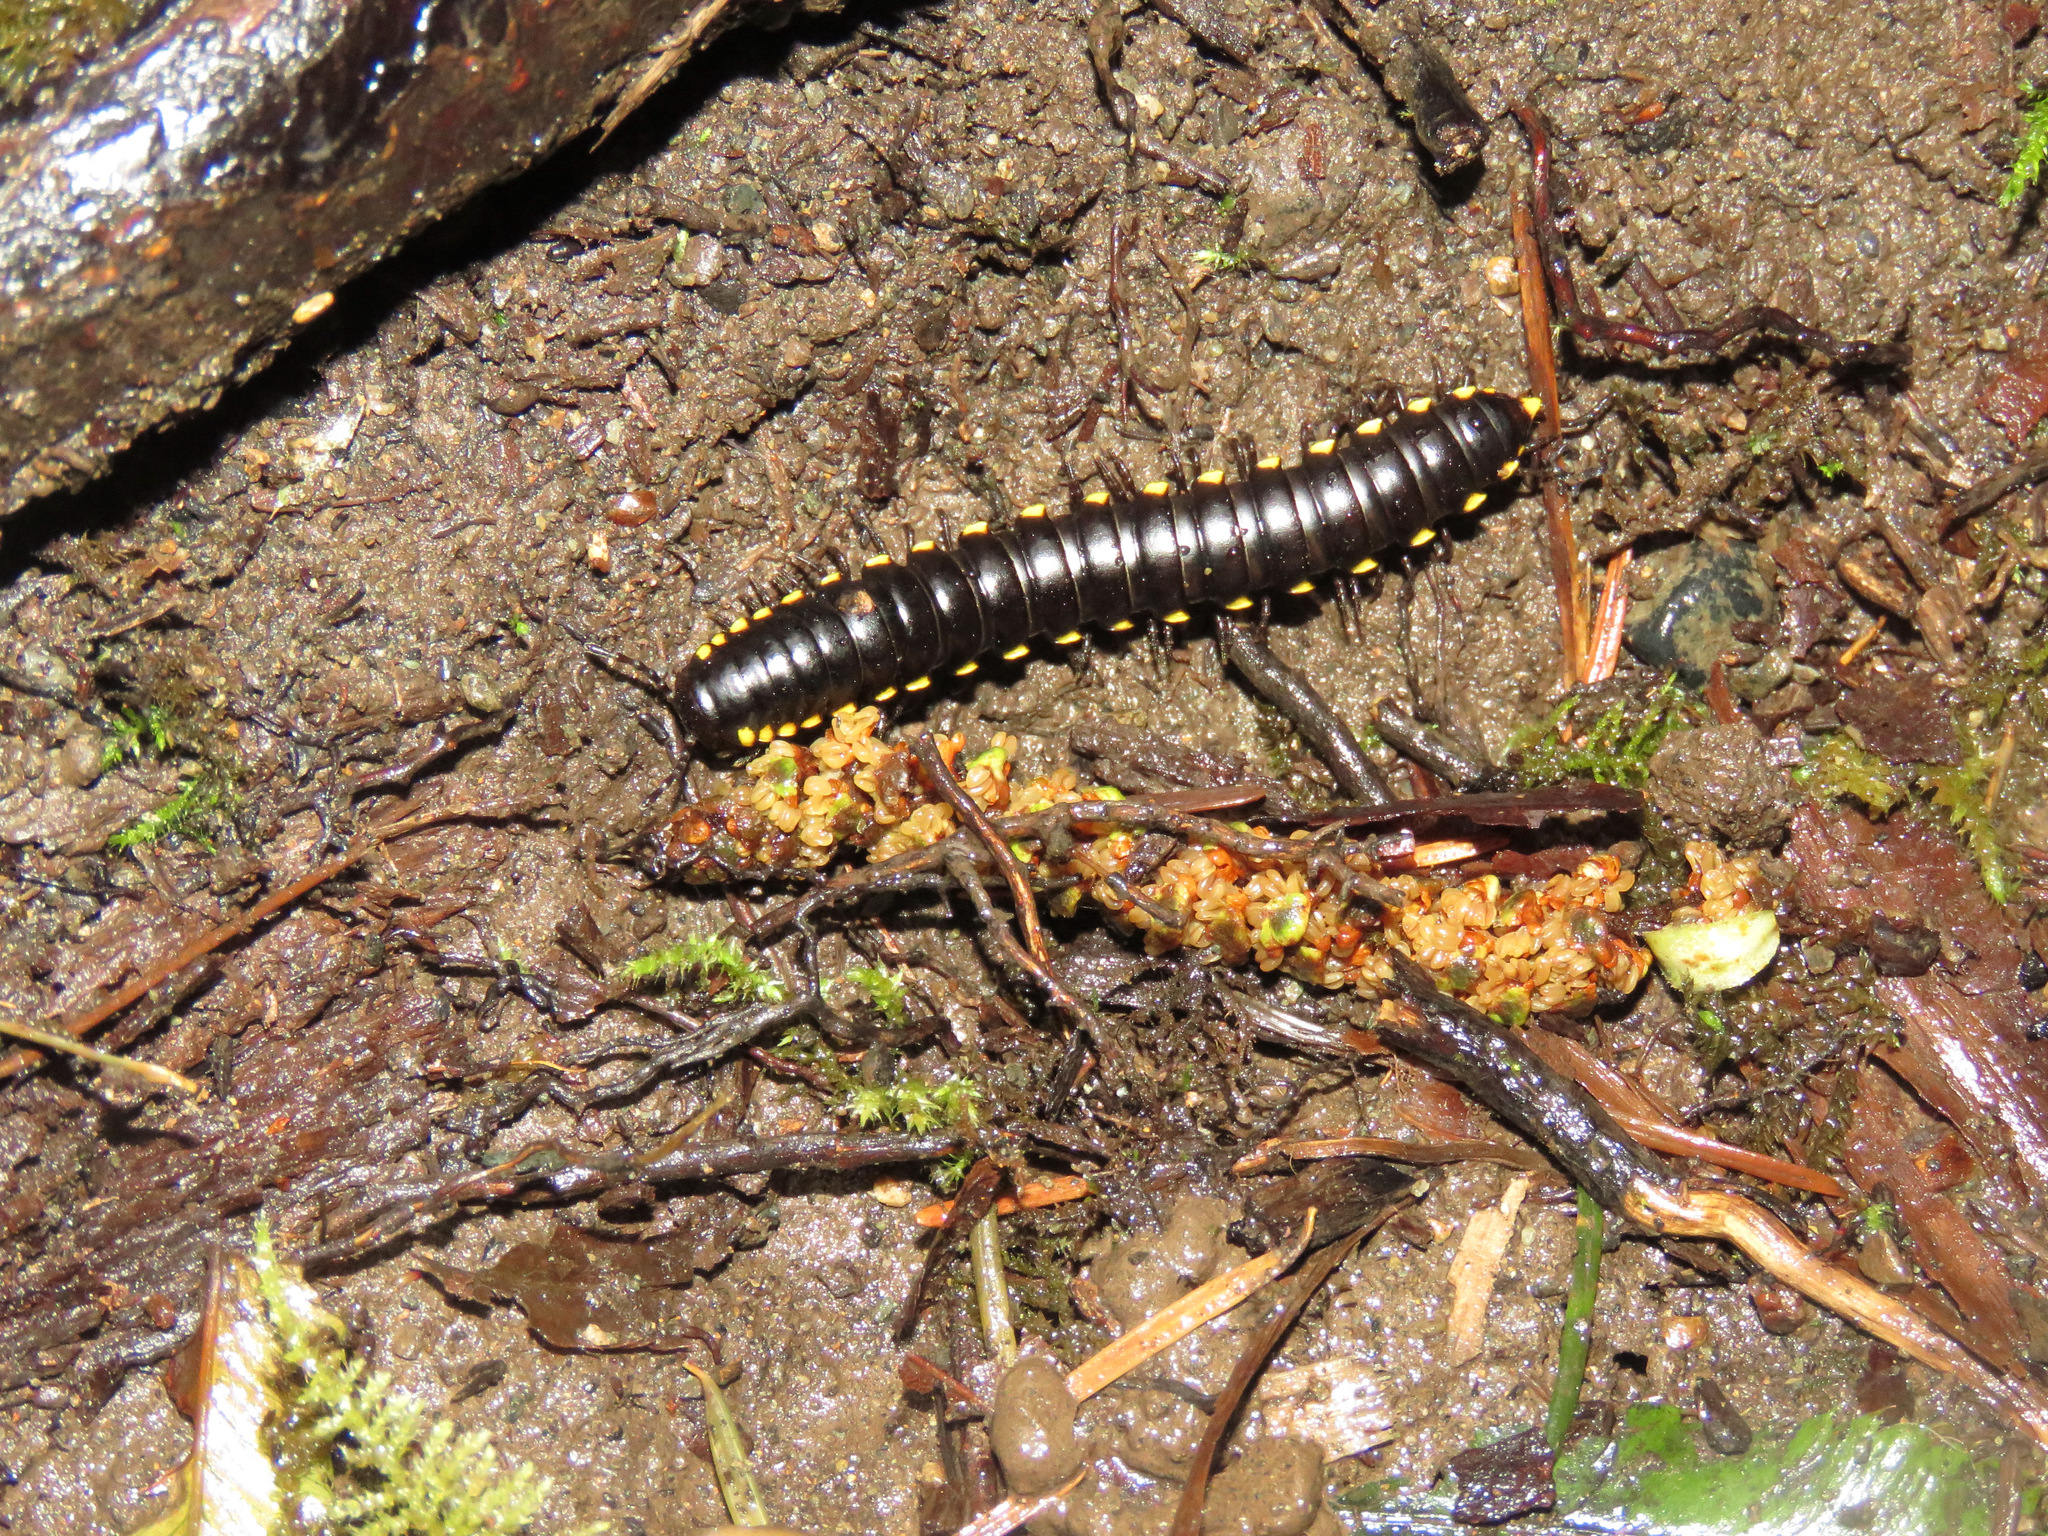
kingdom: Animalia
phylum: Arthropoda
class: Diplopoda
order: Polydesmida
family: Xystodesmidae
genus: Harpaphe
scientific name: Harpaphe haydeniana
